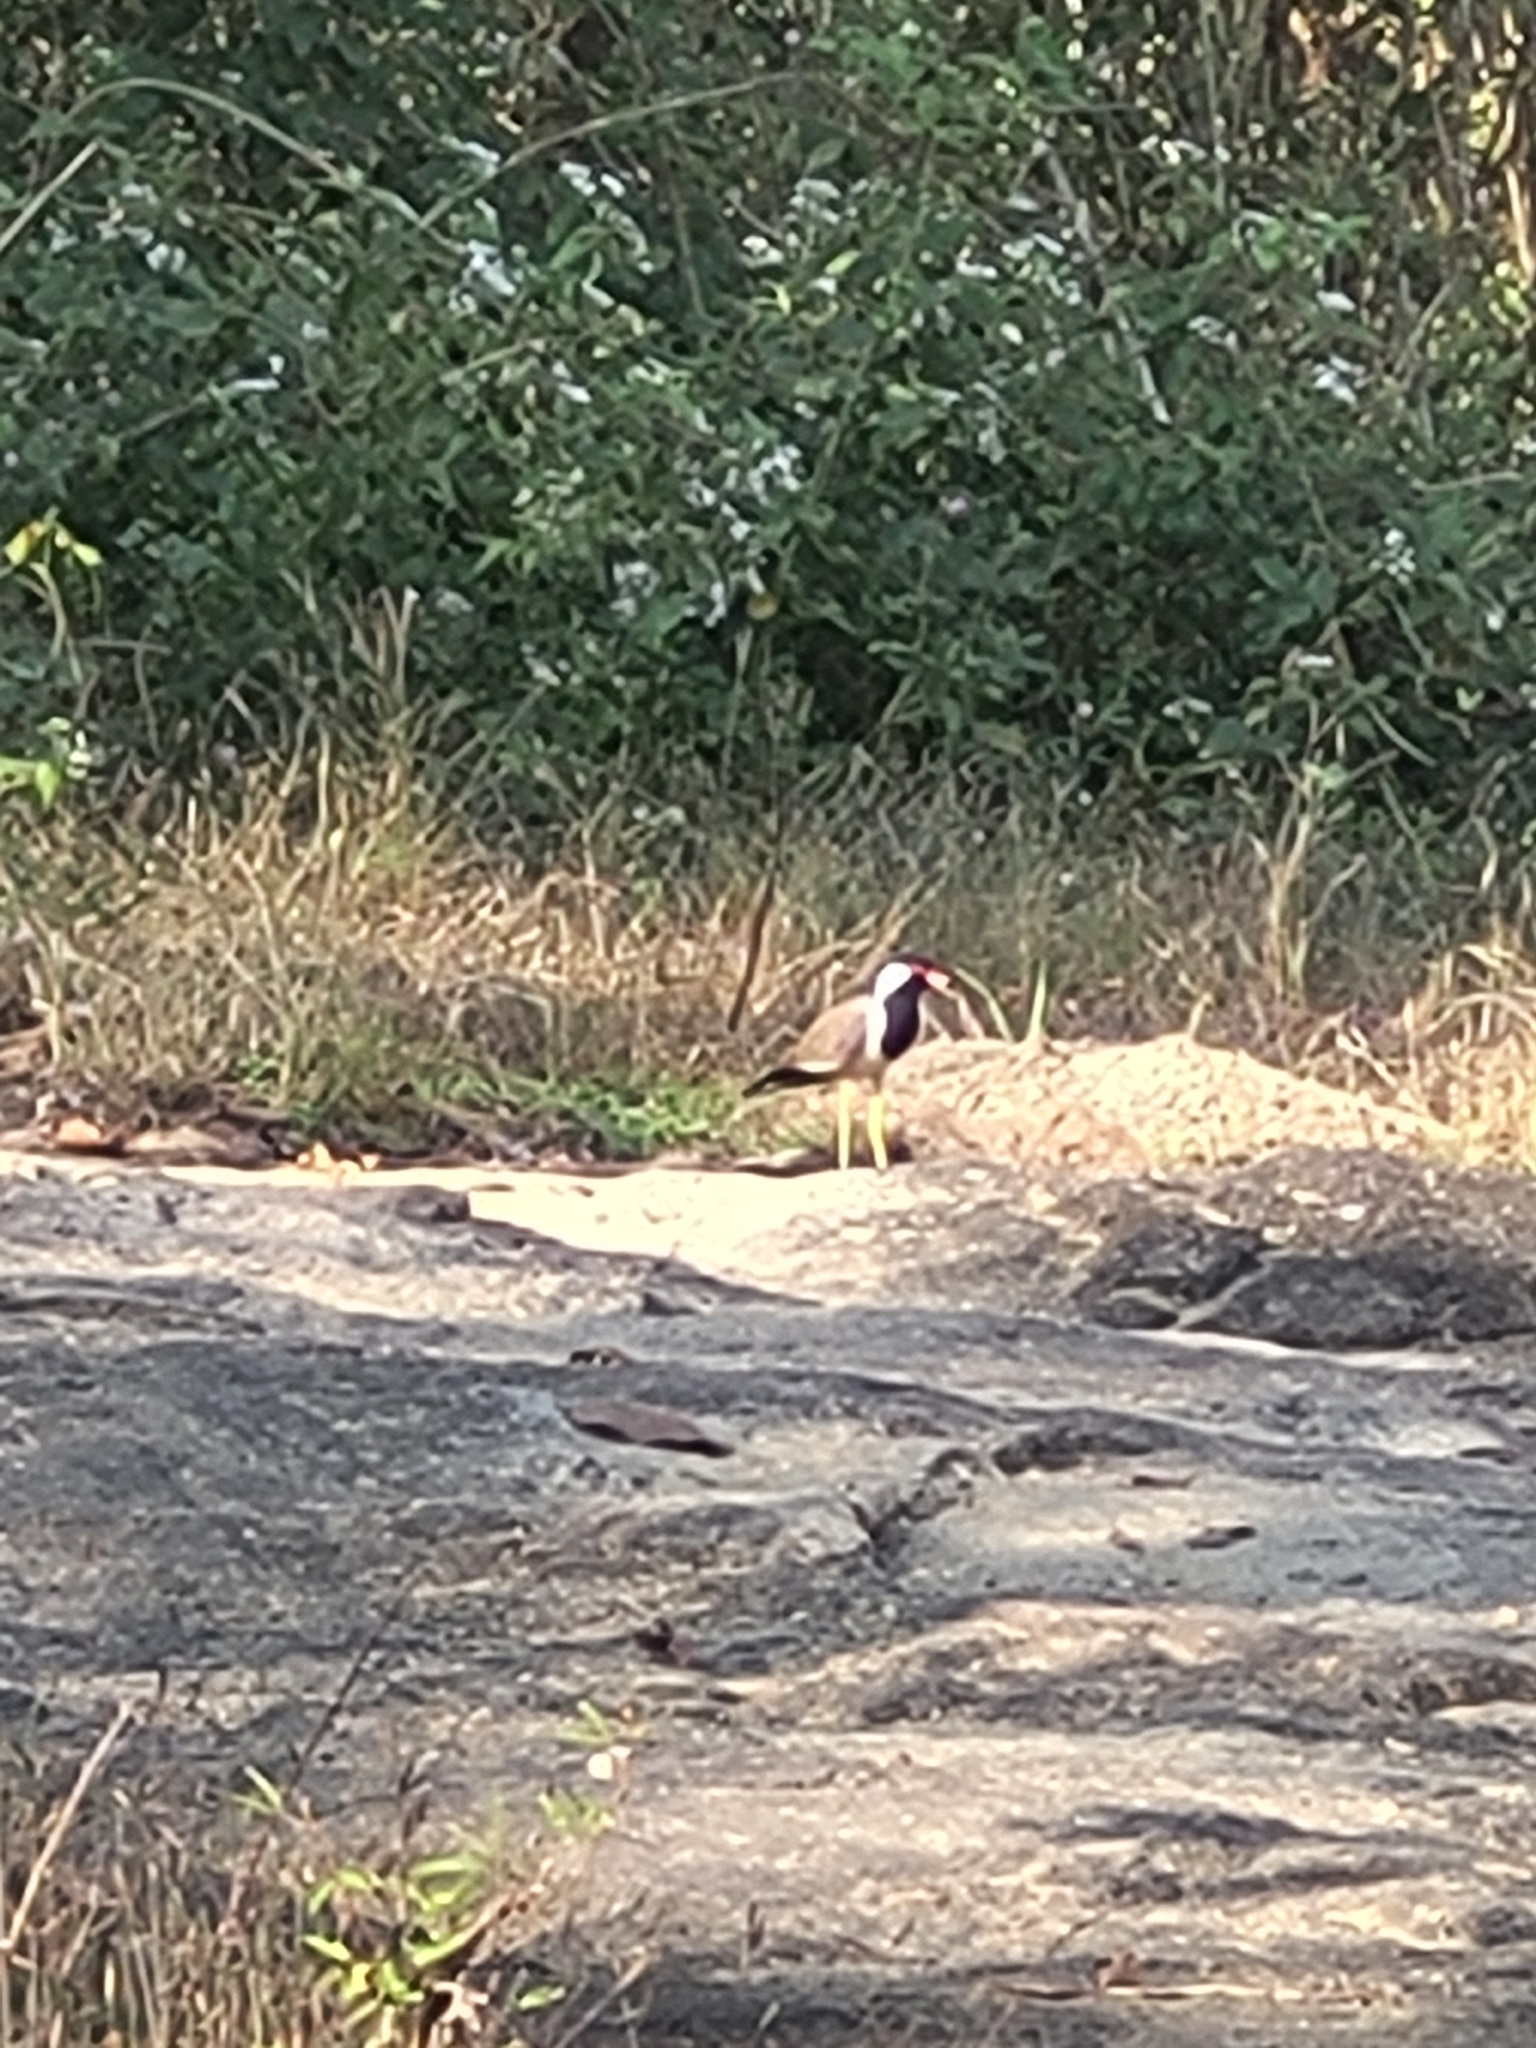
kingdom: Animalia
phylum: Chordata
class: Aves
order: Charadriiformes
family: Charadriidae
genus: Vanellus
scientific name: Vanellus indicus
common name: Red-wattled lapwing
